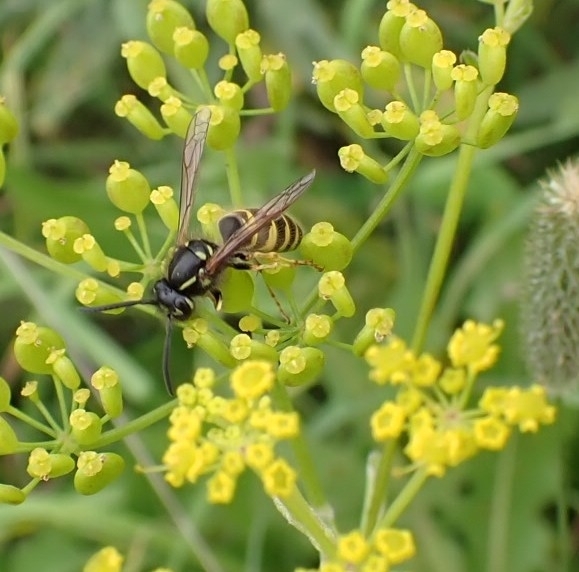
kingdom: Animalia
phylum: Arthropoda
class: Insecta
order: Hymenoptera
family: Vespidae
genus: Vespula
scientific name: Vespula vulgaris
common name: Common wasp
